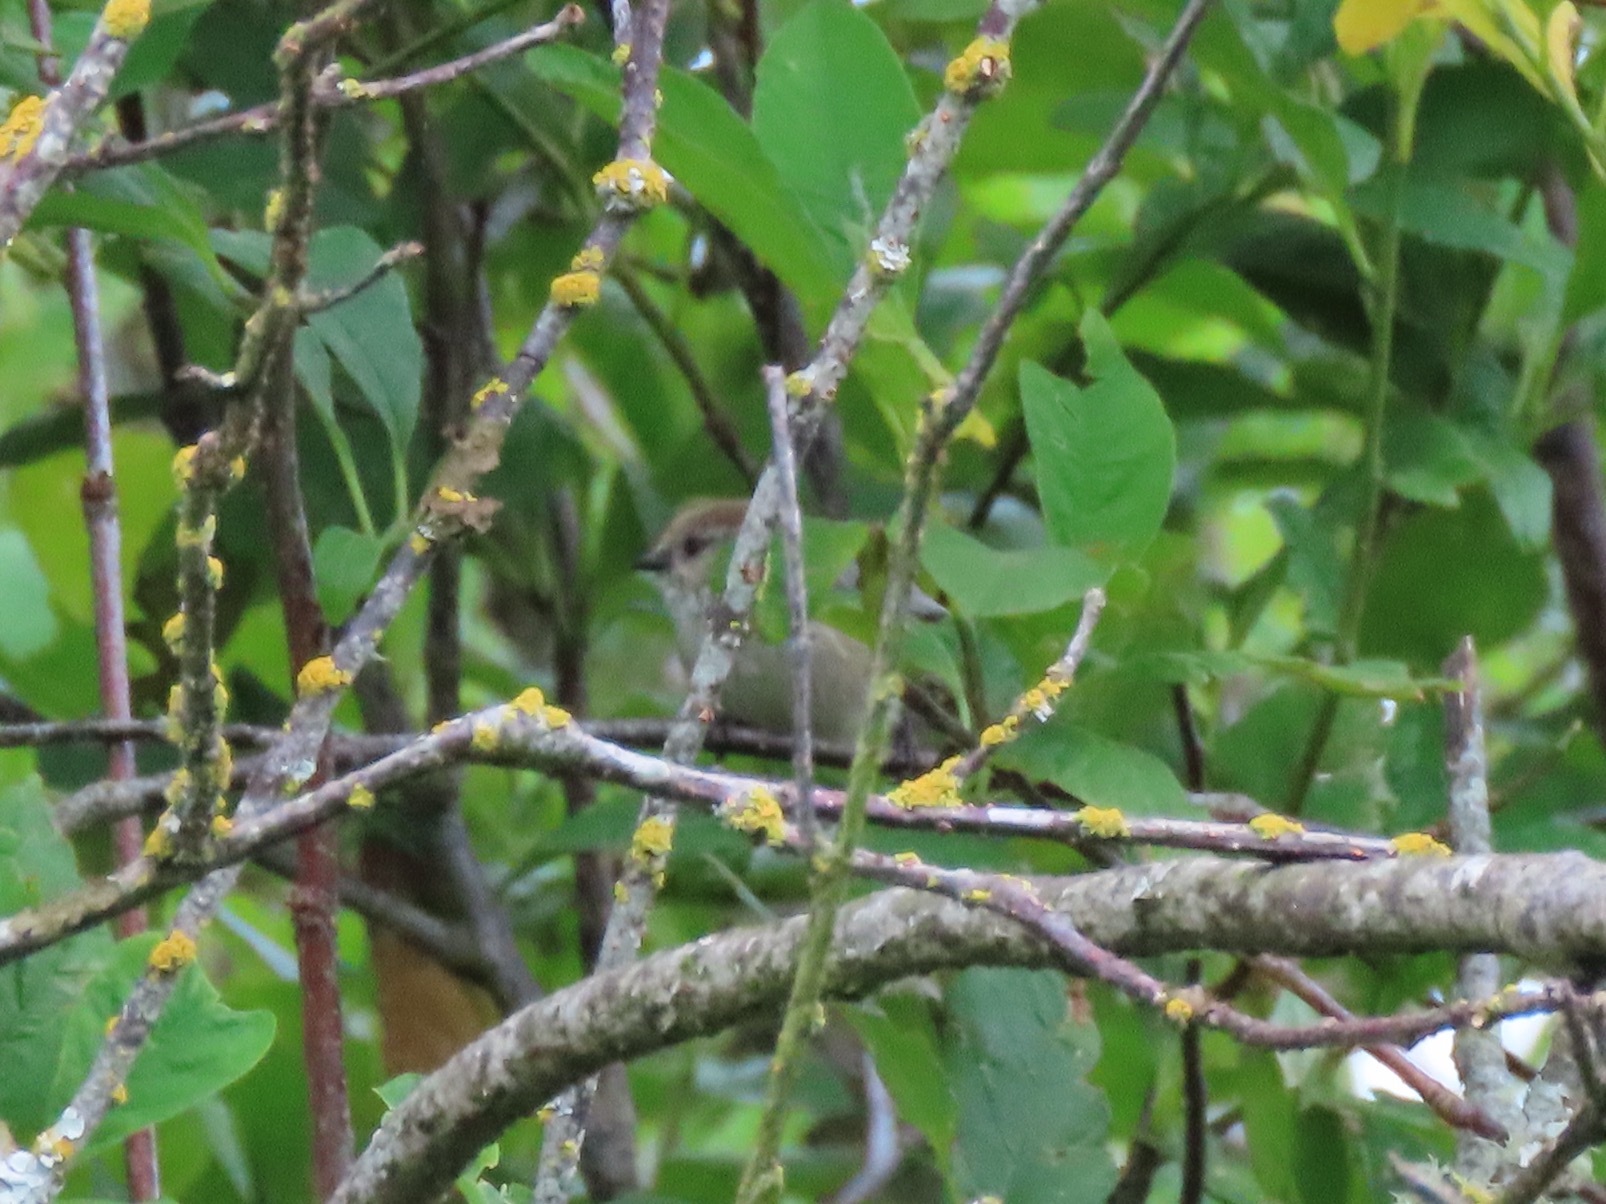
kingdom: Animalia
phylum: Chordata
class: Aves
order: Passeriformes
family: Aegithalidae
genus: Psaltriparus
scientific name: Psaltriparus minimus
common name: American bushtit
